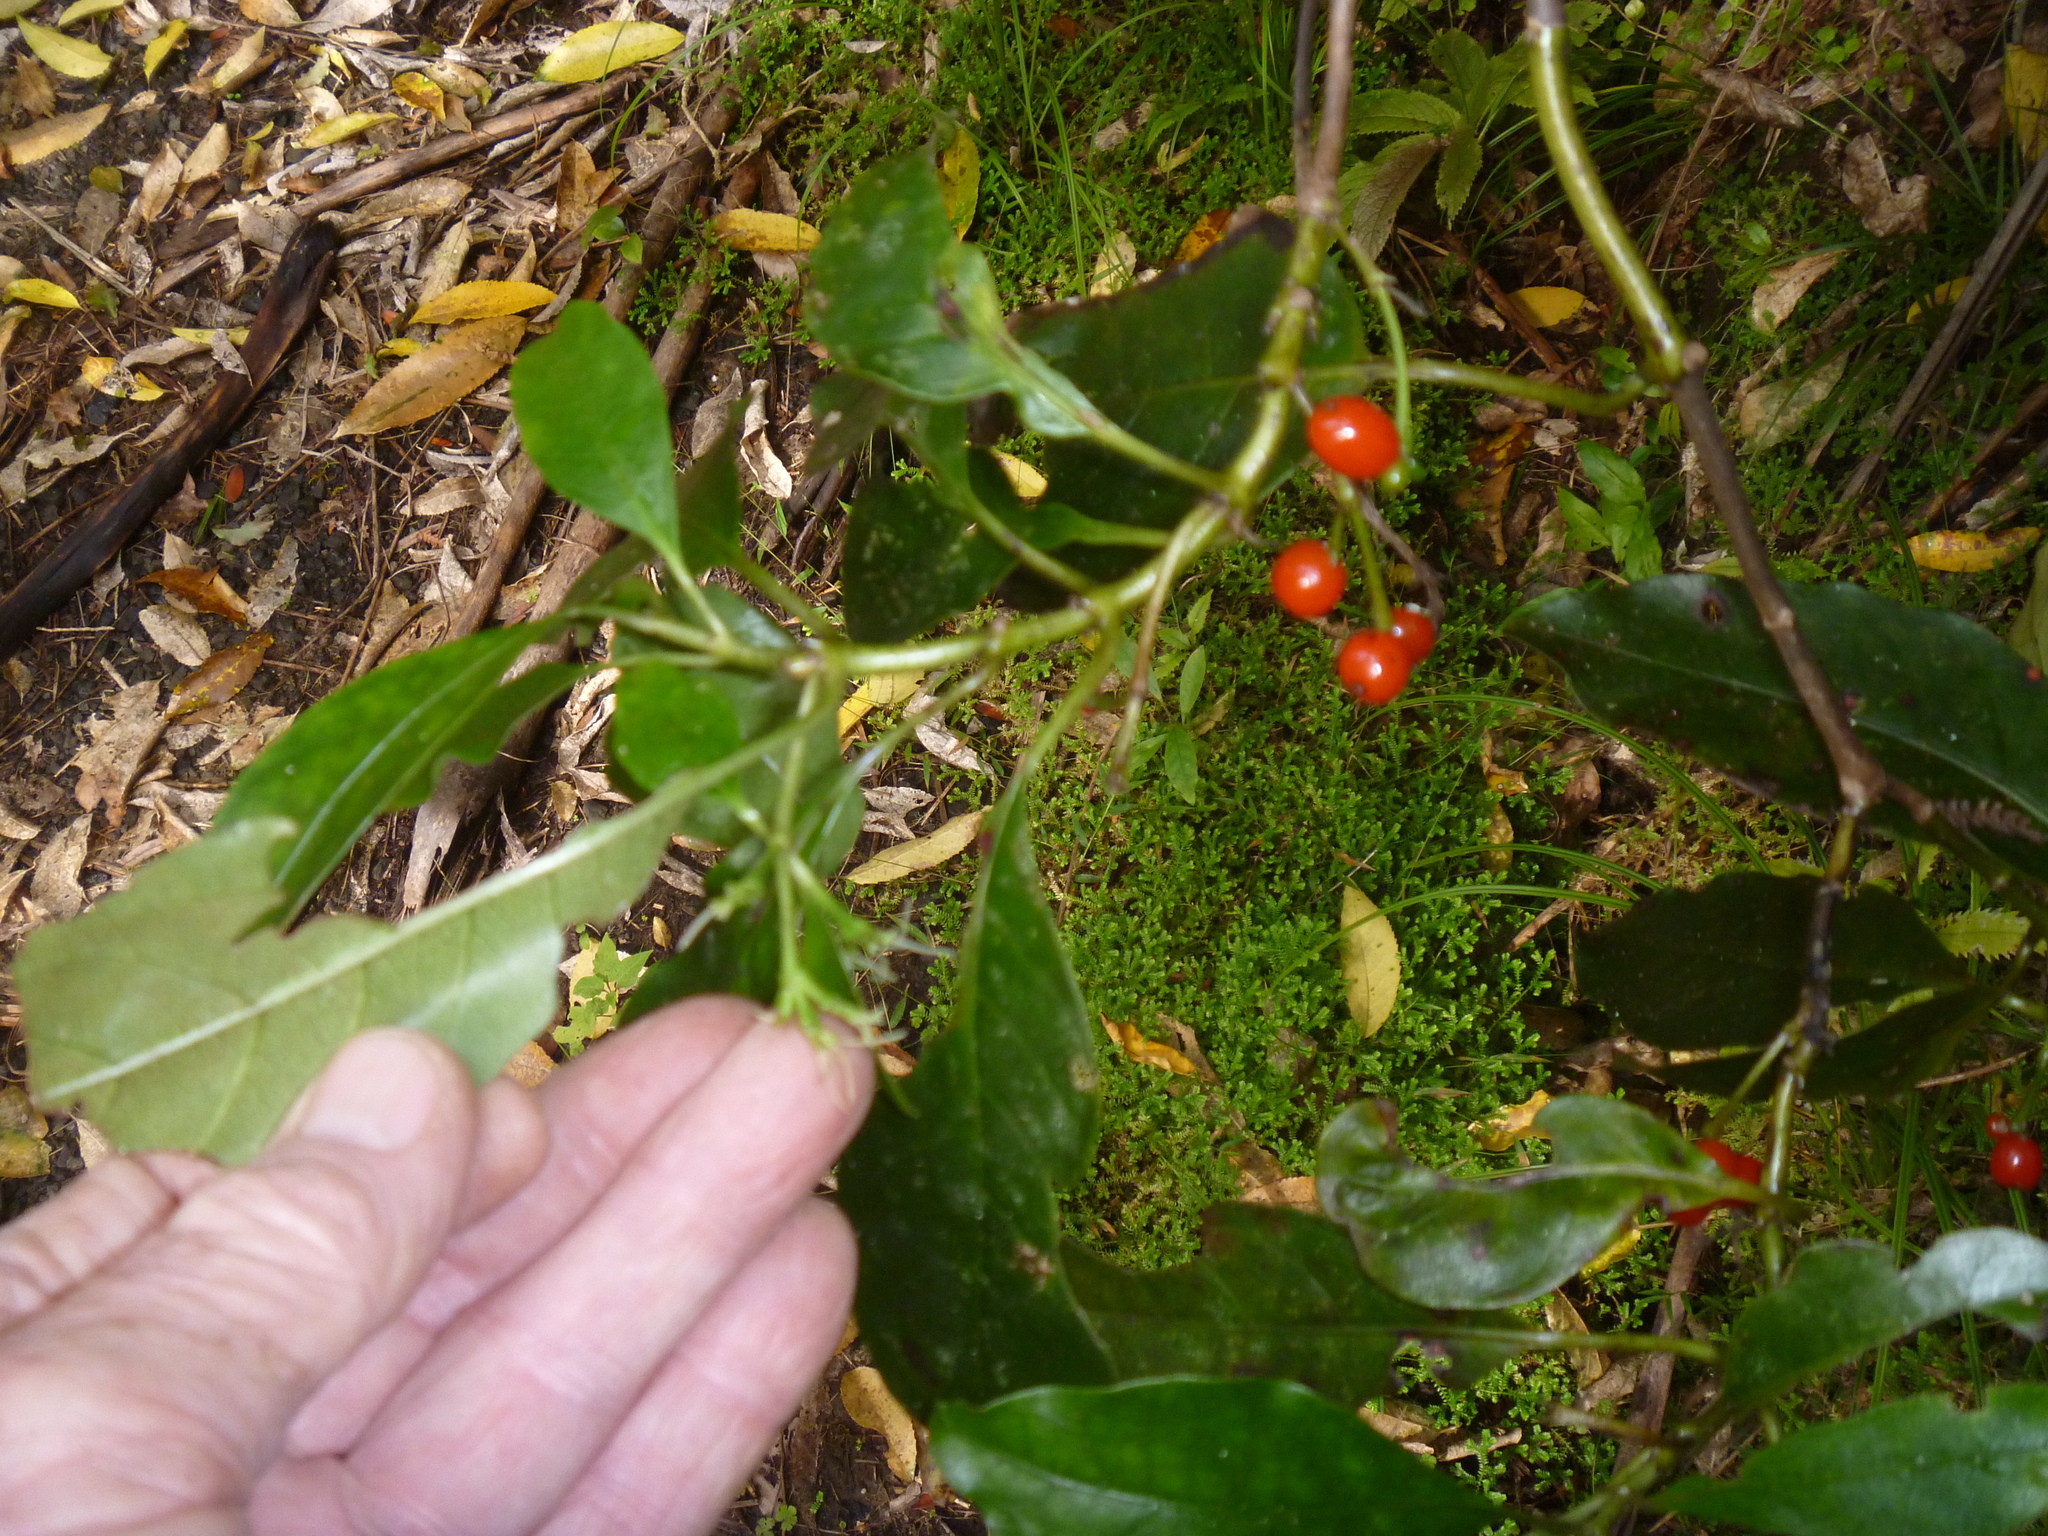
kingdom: Plantae
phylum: Tracheophyta
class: Magnoliopsida
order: Gentianales
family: Rubiaceae
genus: Coprosma
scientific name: Coprosma autumnalis
